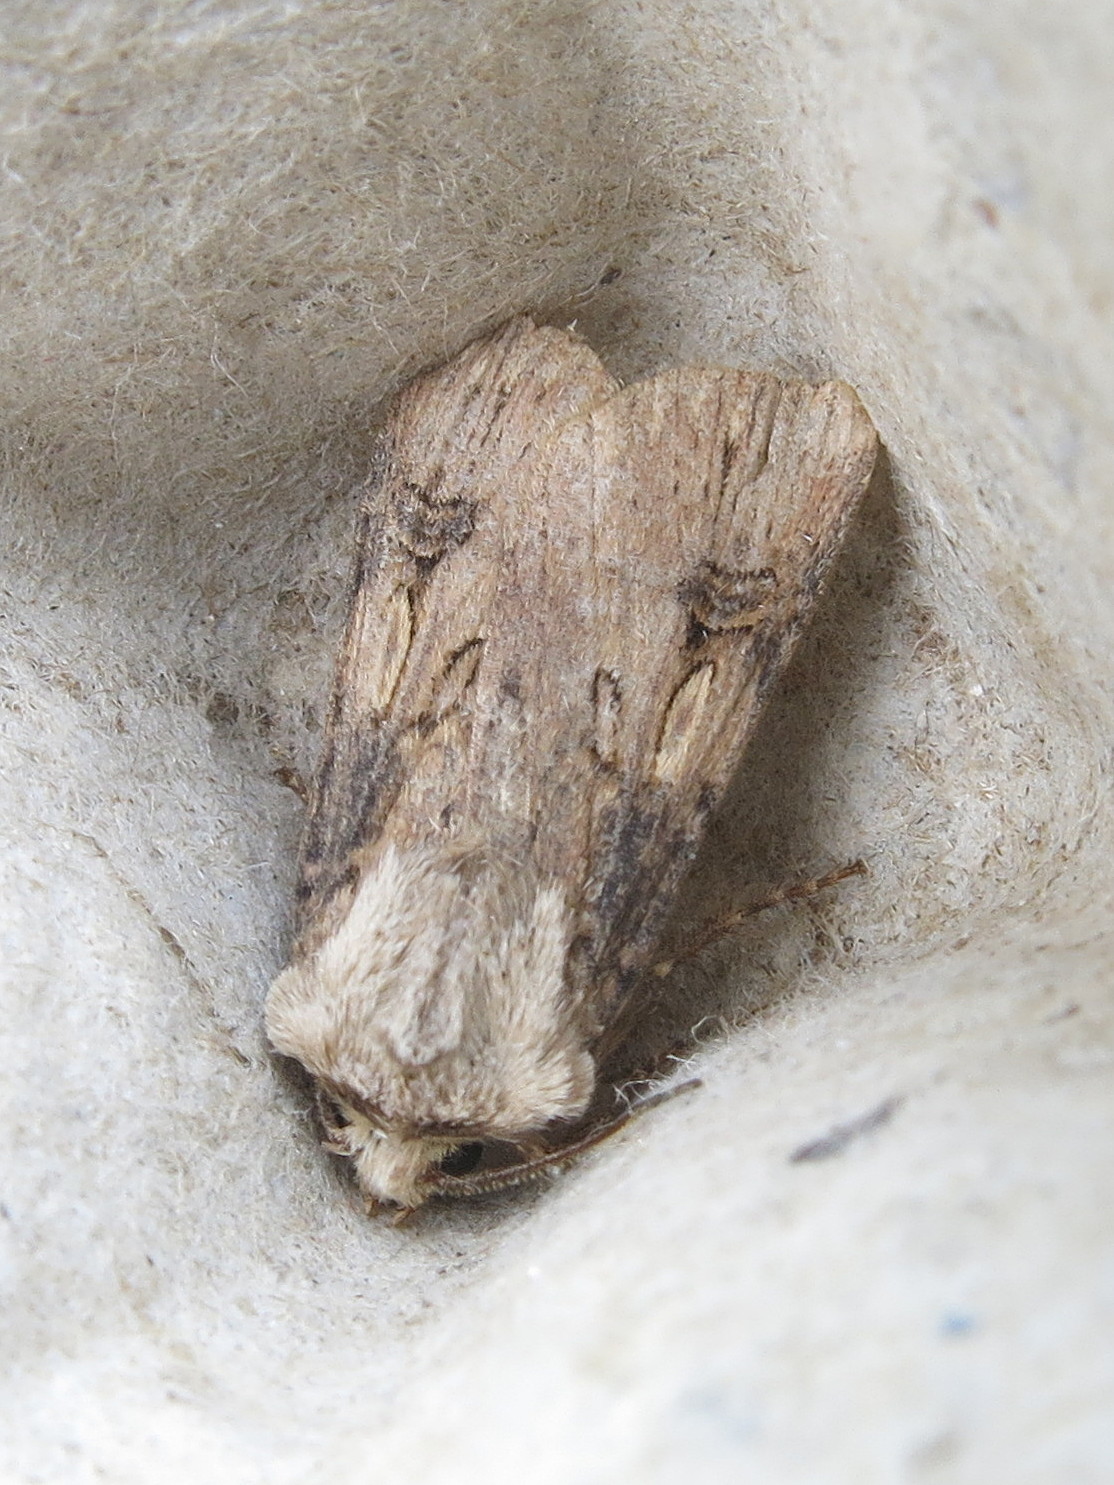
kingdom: Animalia
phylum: Arthropoda
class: Insecta
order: Lepidoptera
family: Noctuidae
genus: Agrotis
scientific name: Agrotis puta
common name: Shuttle-shaped dart
